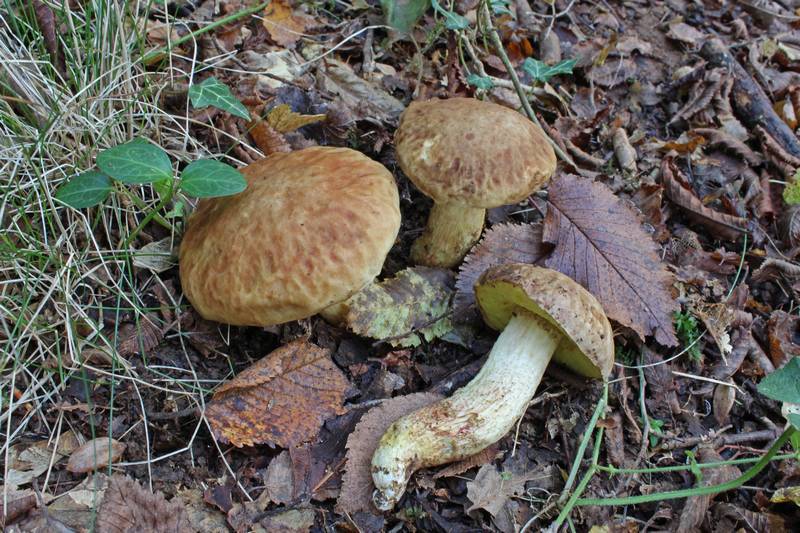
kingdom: Fungi
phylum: Basidiomycota
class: Agaricomycetes
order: Boletales
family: Boletaceae
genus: Hemileccinum
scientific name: Hemileccinum depilatum
